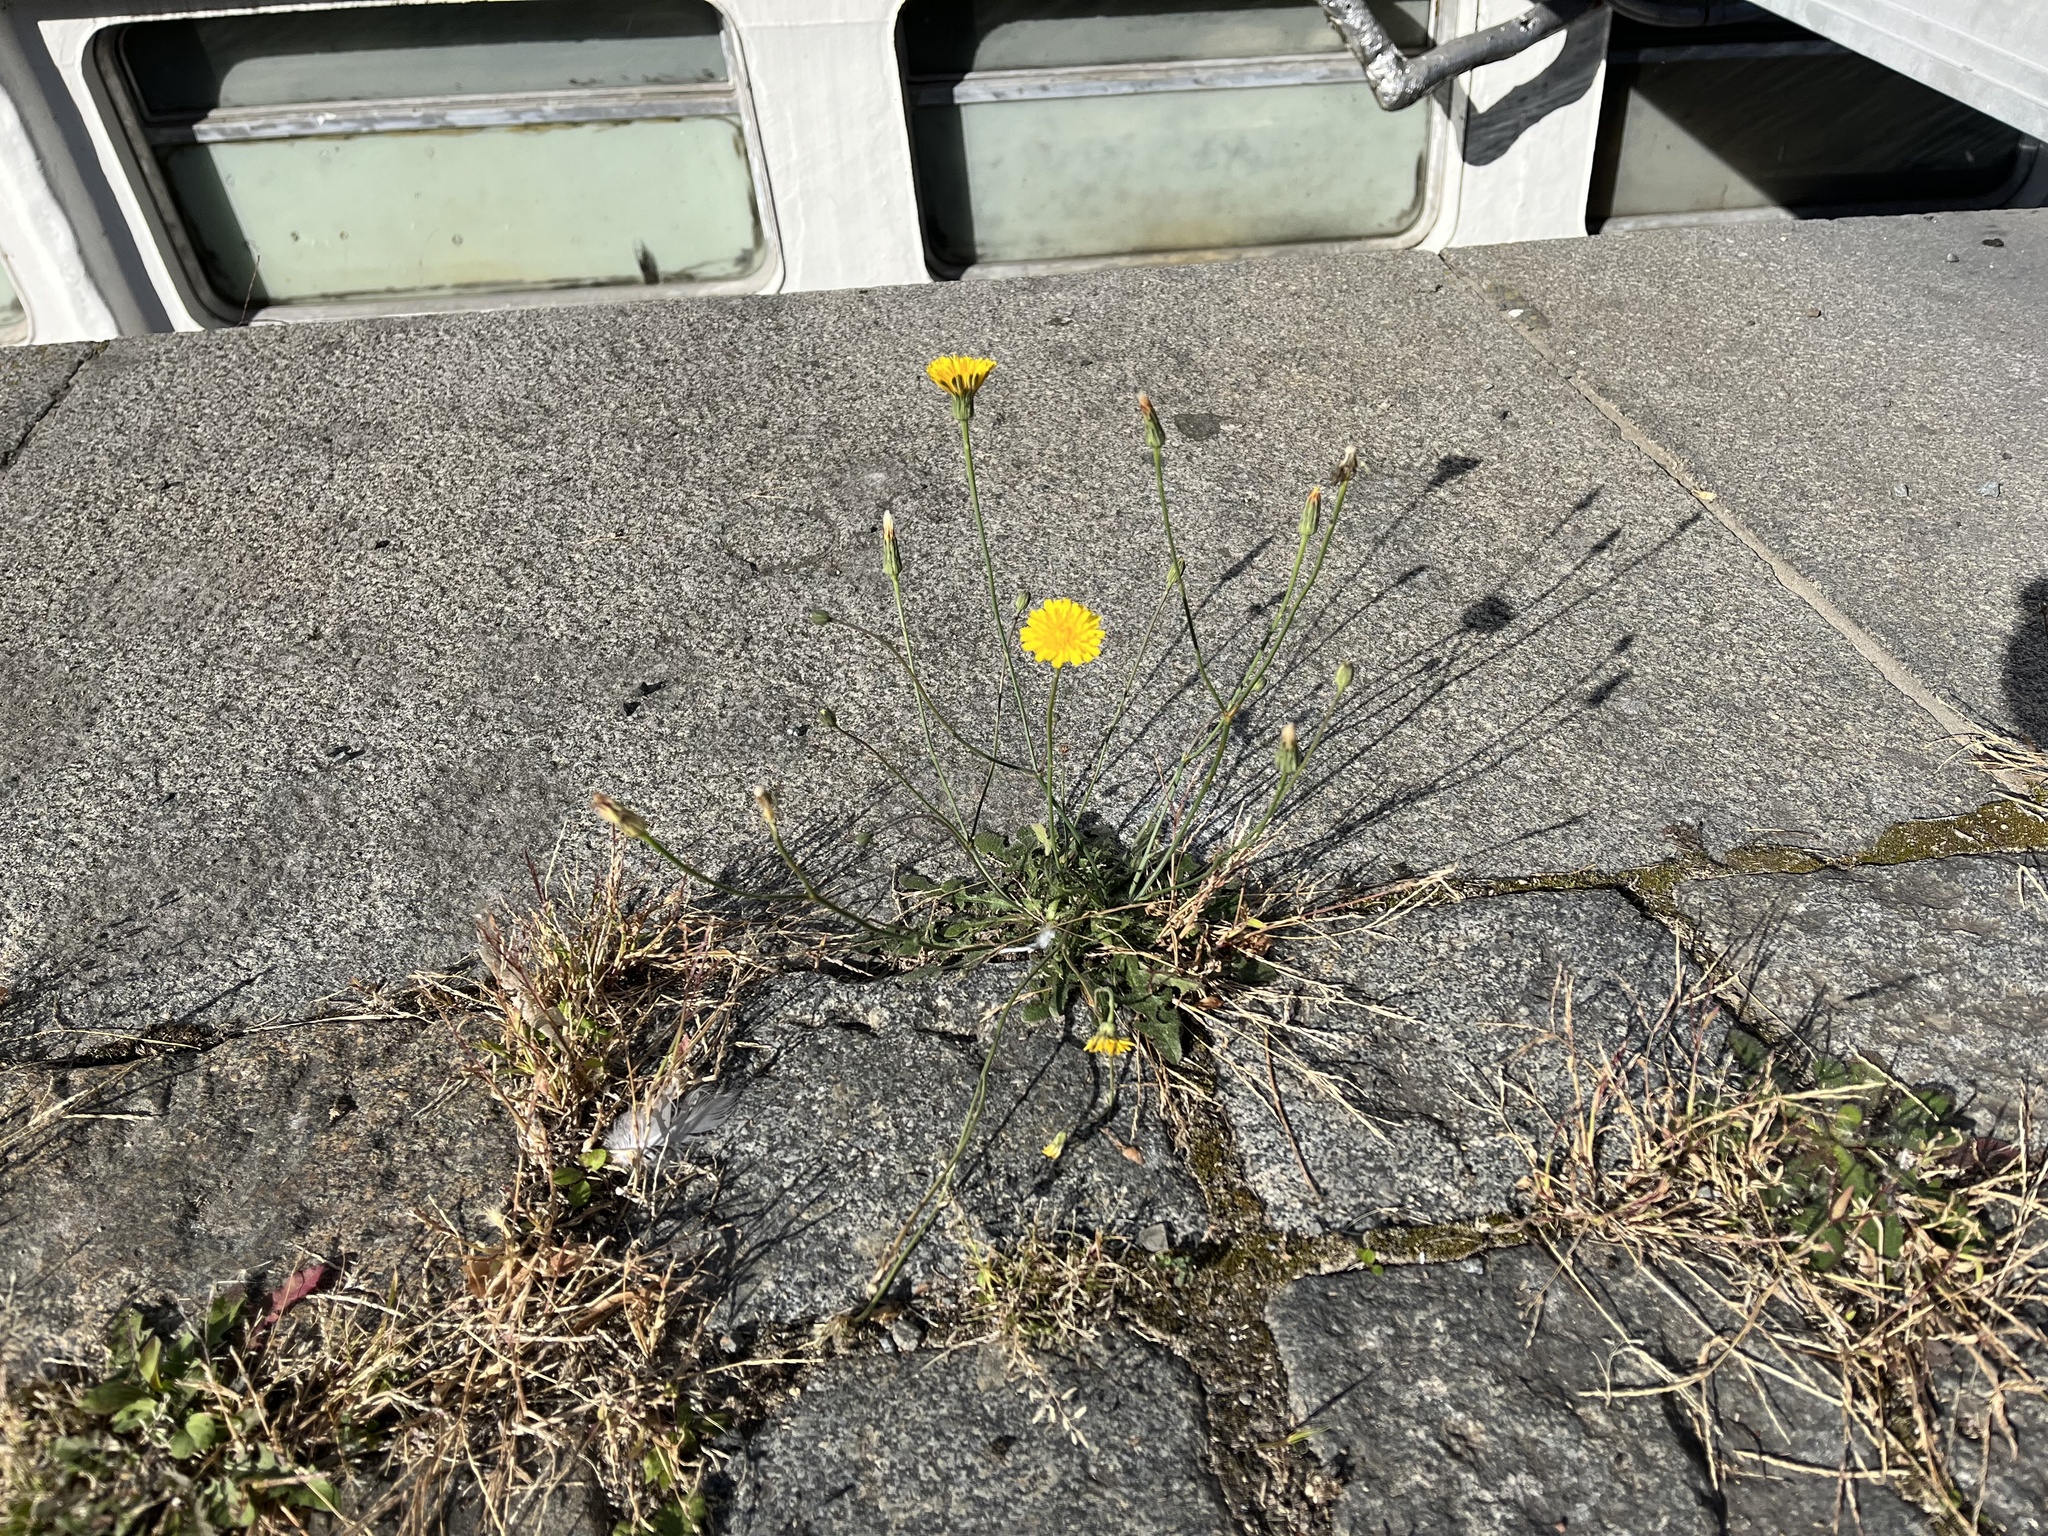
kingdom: Plantae
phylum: Tracheophyta
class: Magnoliopsida
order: Asterales
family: Asteraceae
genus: Hypochaeris
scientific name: Hypochaeris radicata
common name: Flatweed
